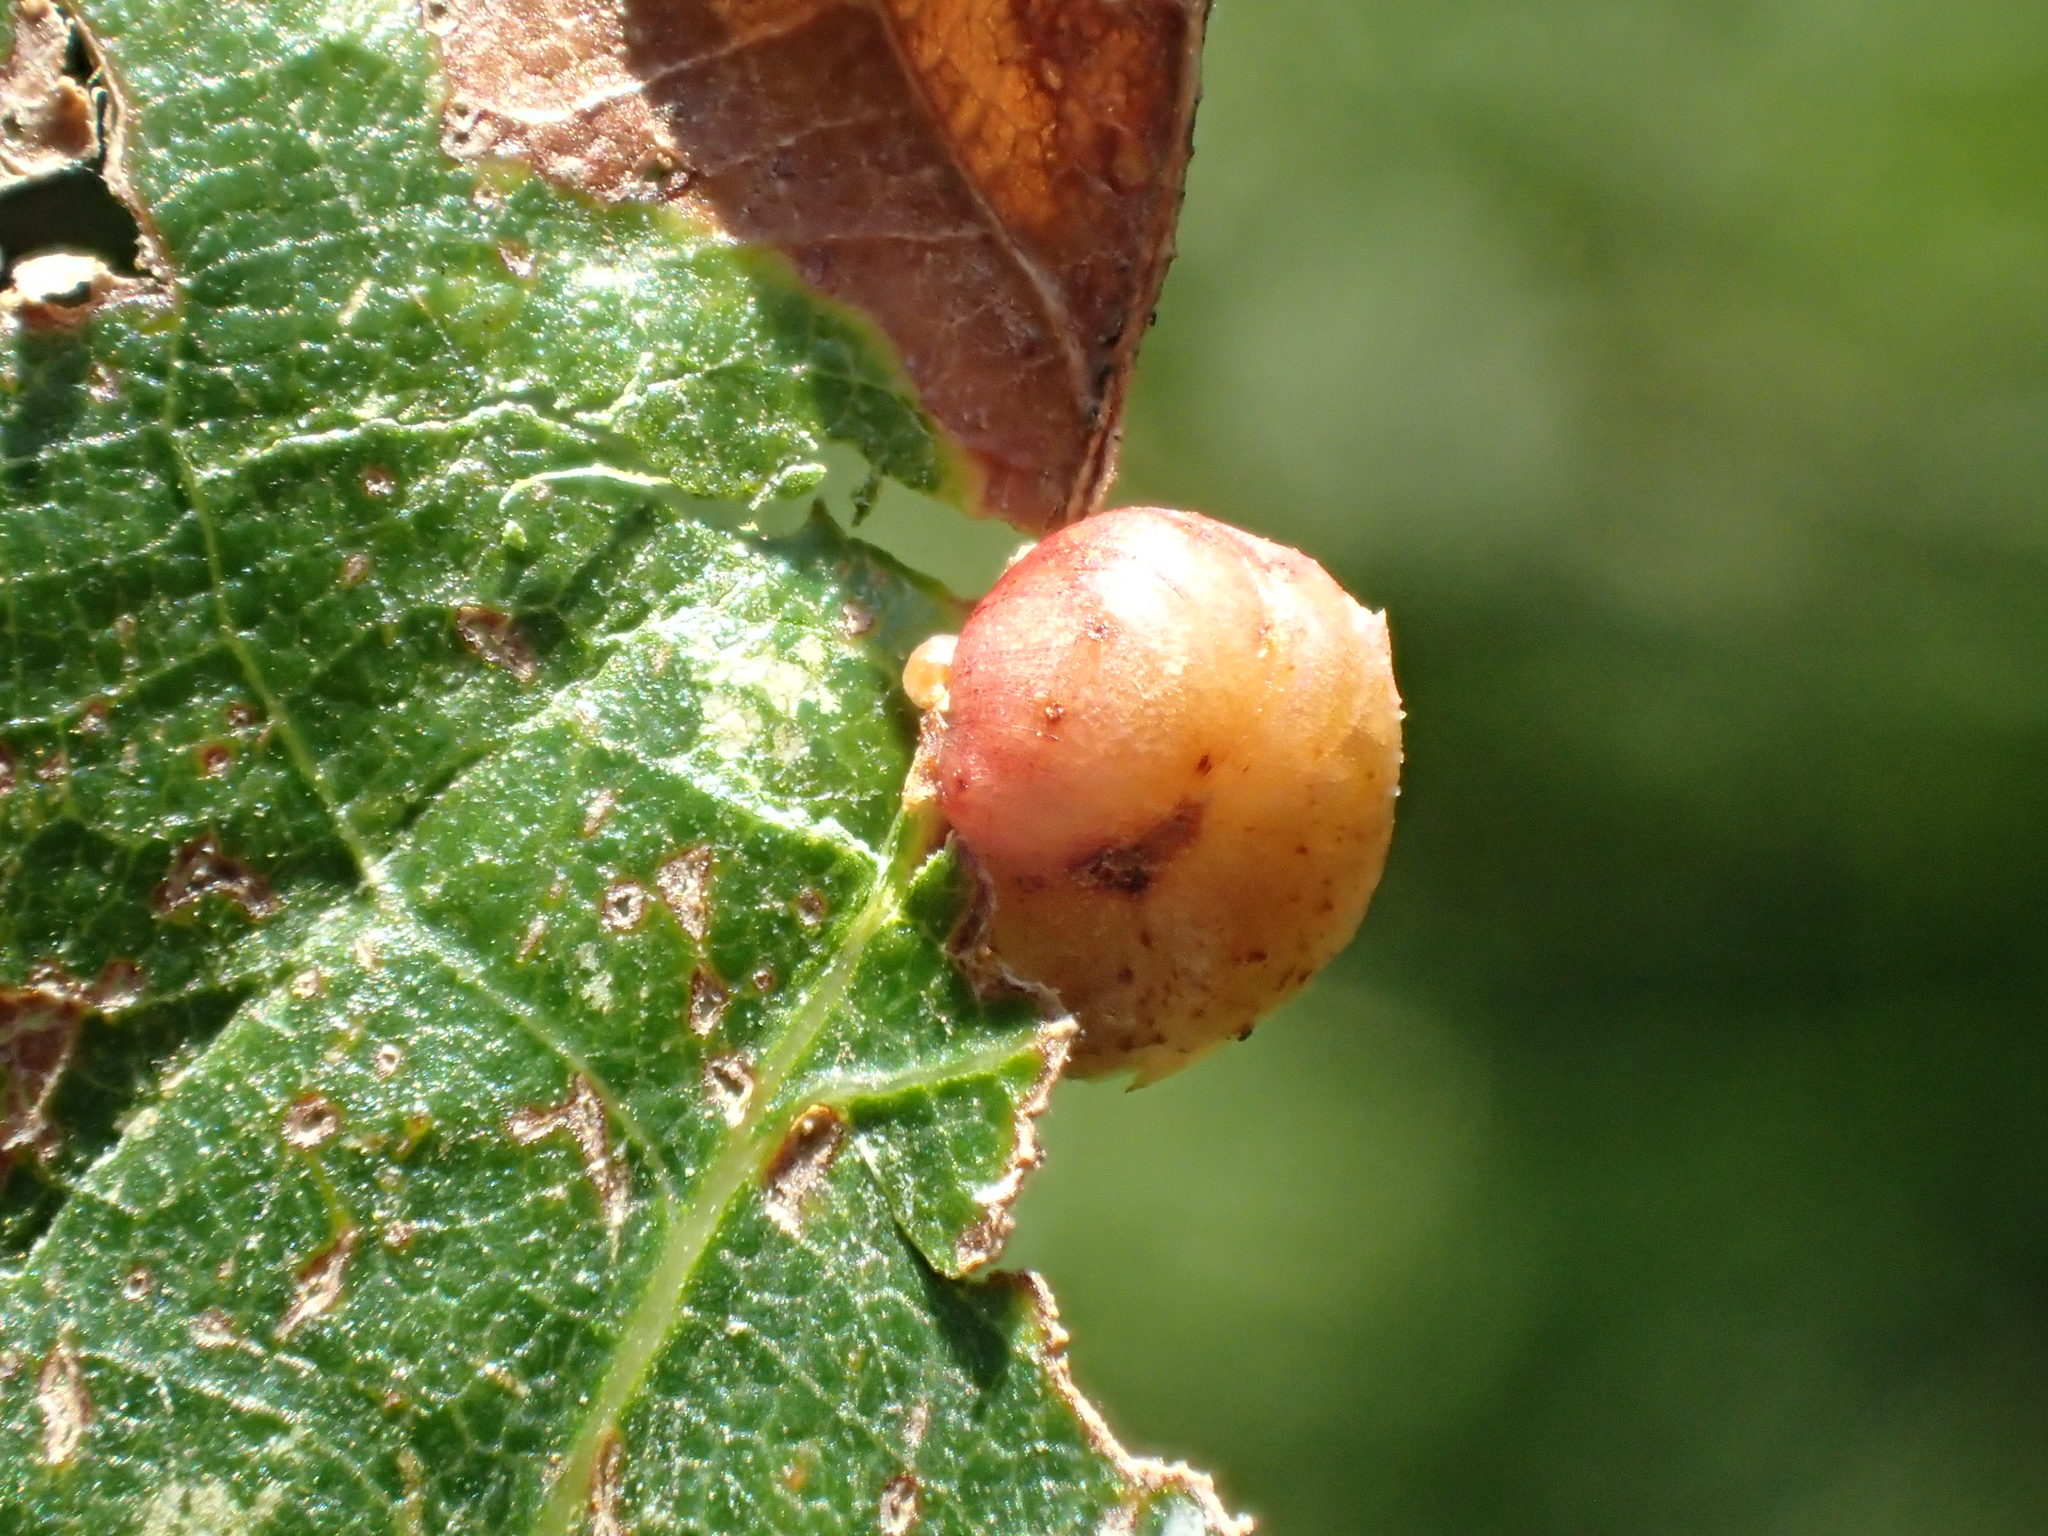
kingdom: Animalia
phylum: Arthropoda
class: Insecta
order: Hymenoptera
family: Cynipidae
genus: Cynips
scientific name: Cynips divisa
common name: Red currant gall
